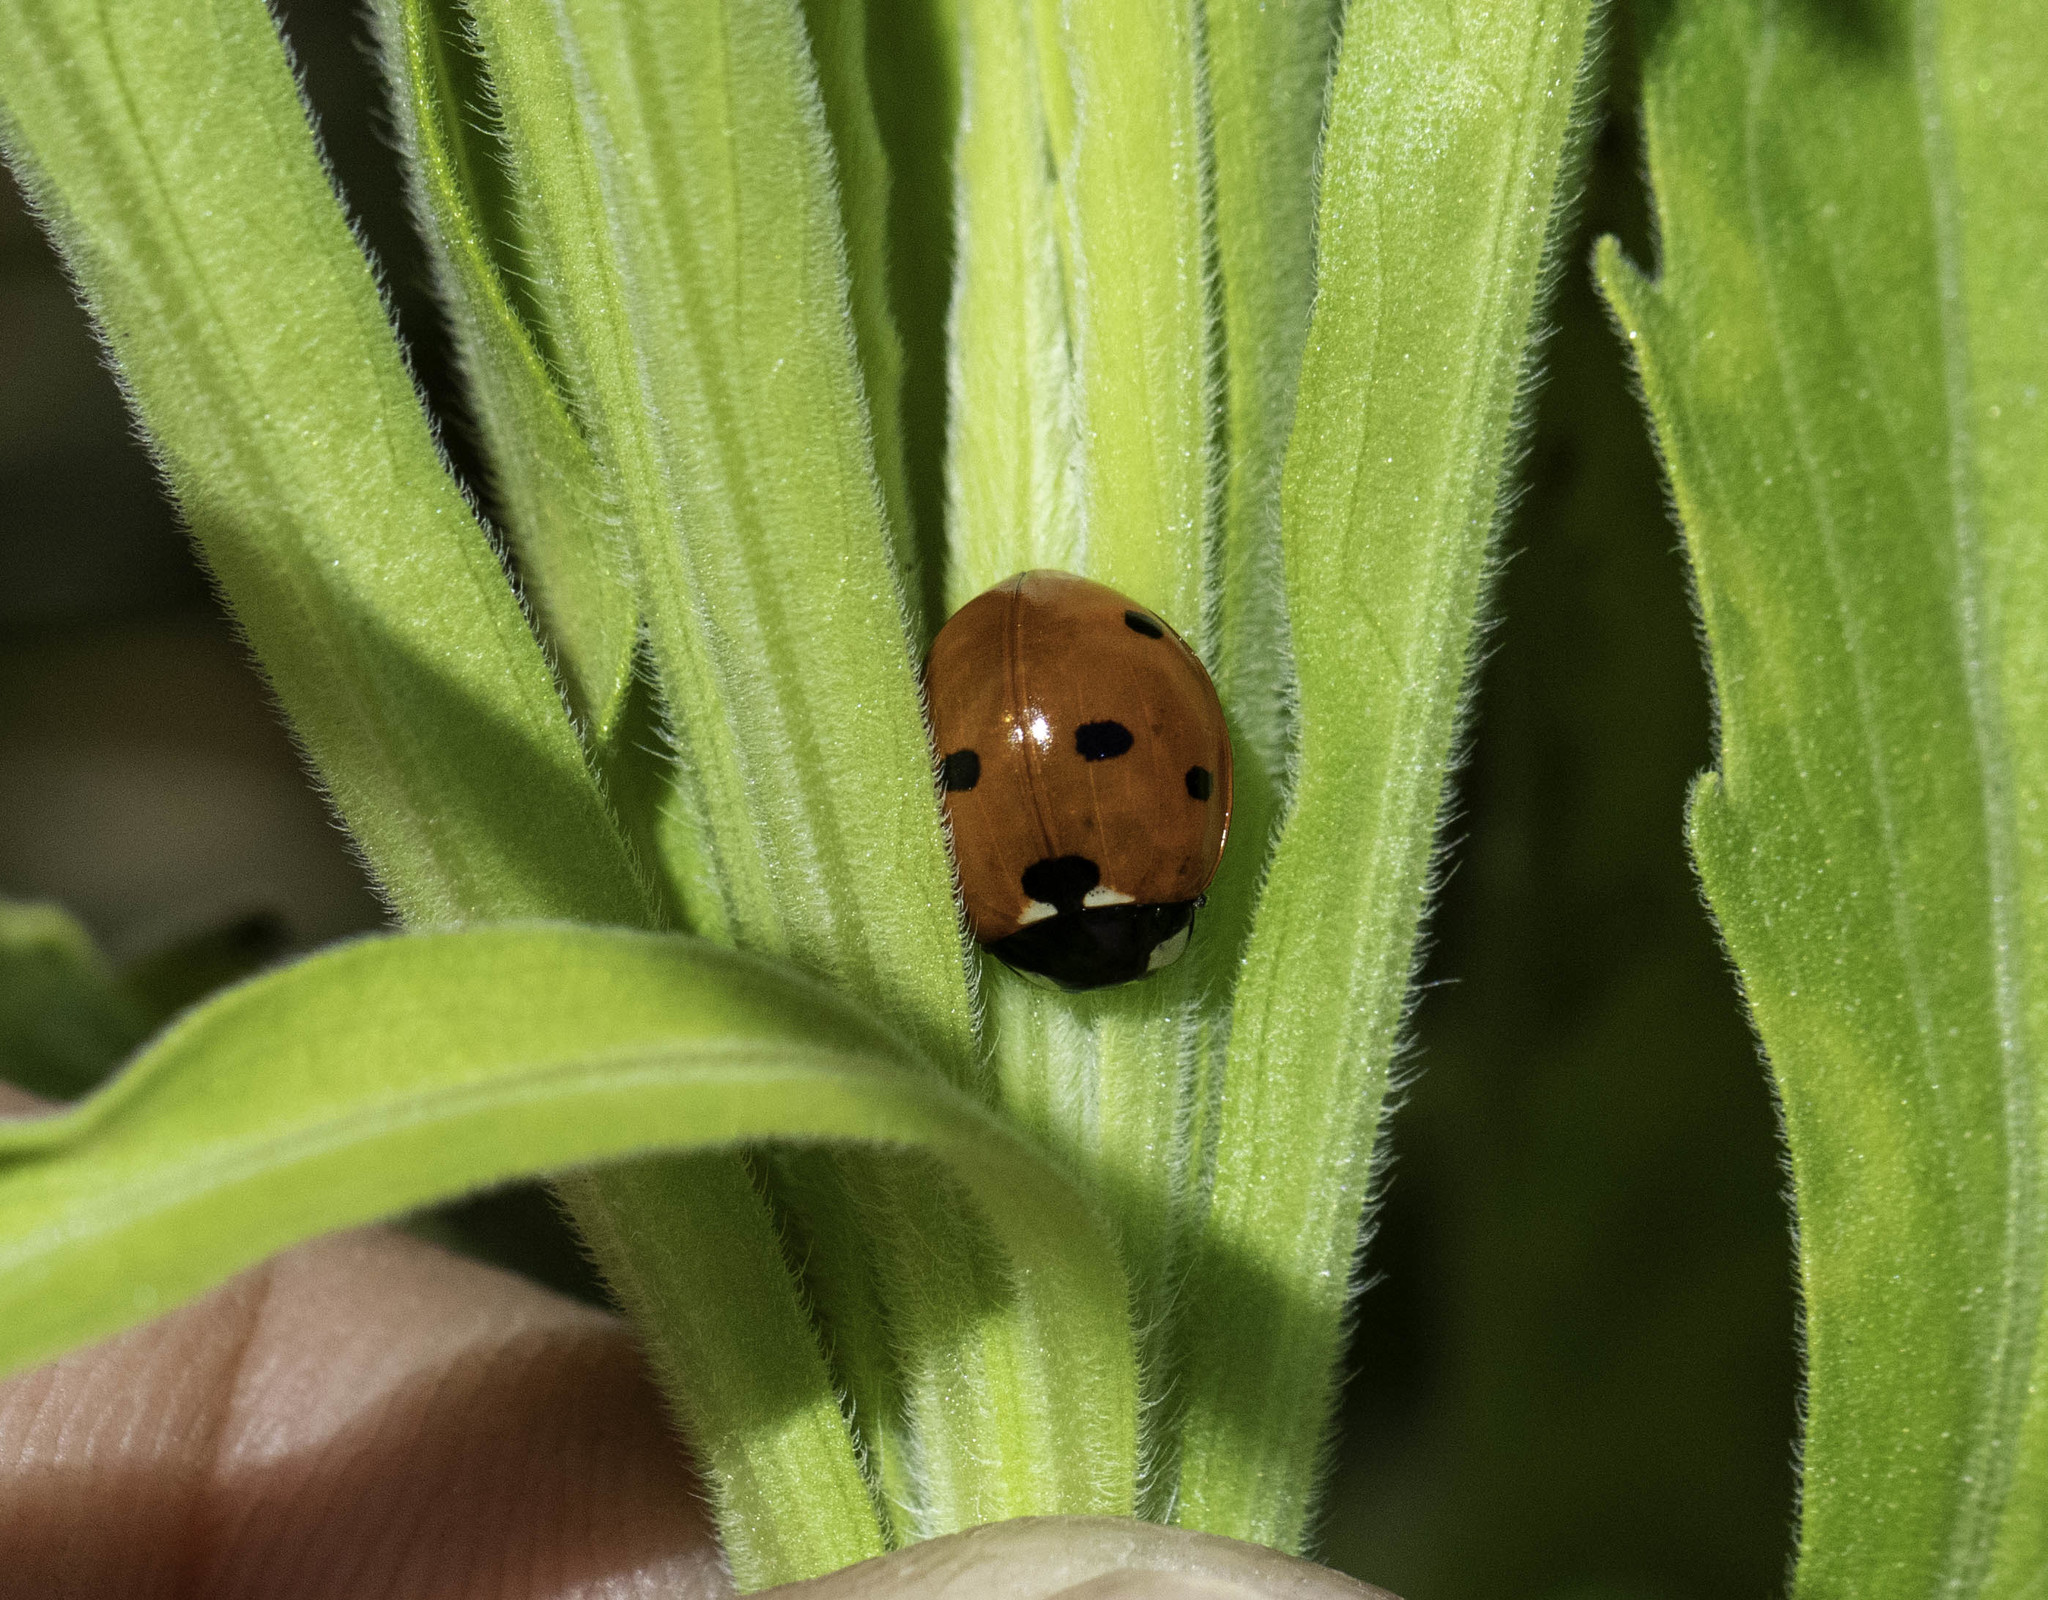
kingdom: Animalia
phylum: Arthropoda
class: Insecta
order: Coleoptera
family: Coccinellidae
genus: Coccinella
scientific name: Coccinella septempunctata
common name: Sevenspotted lady beetle
